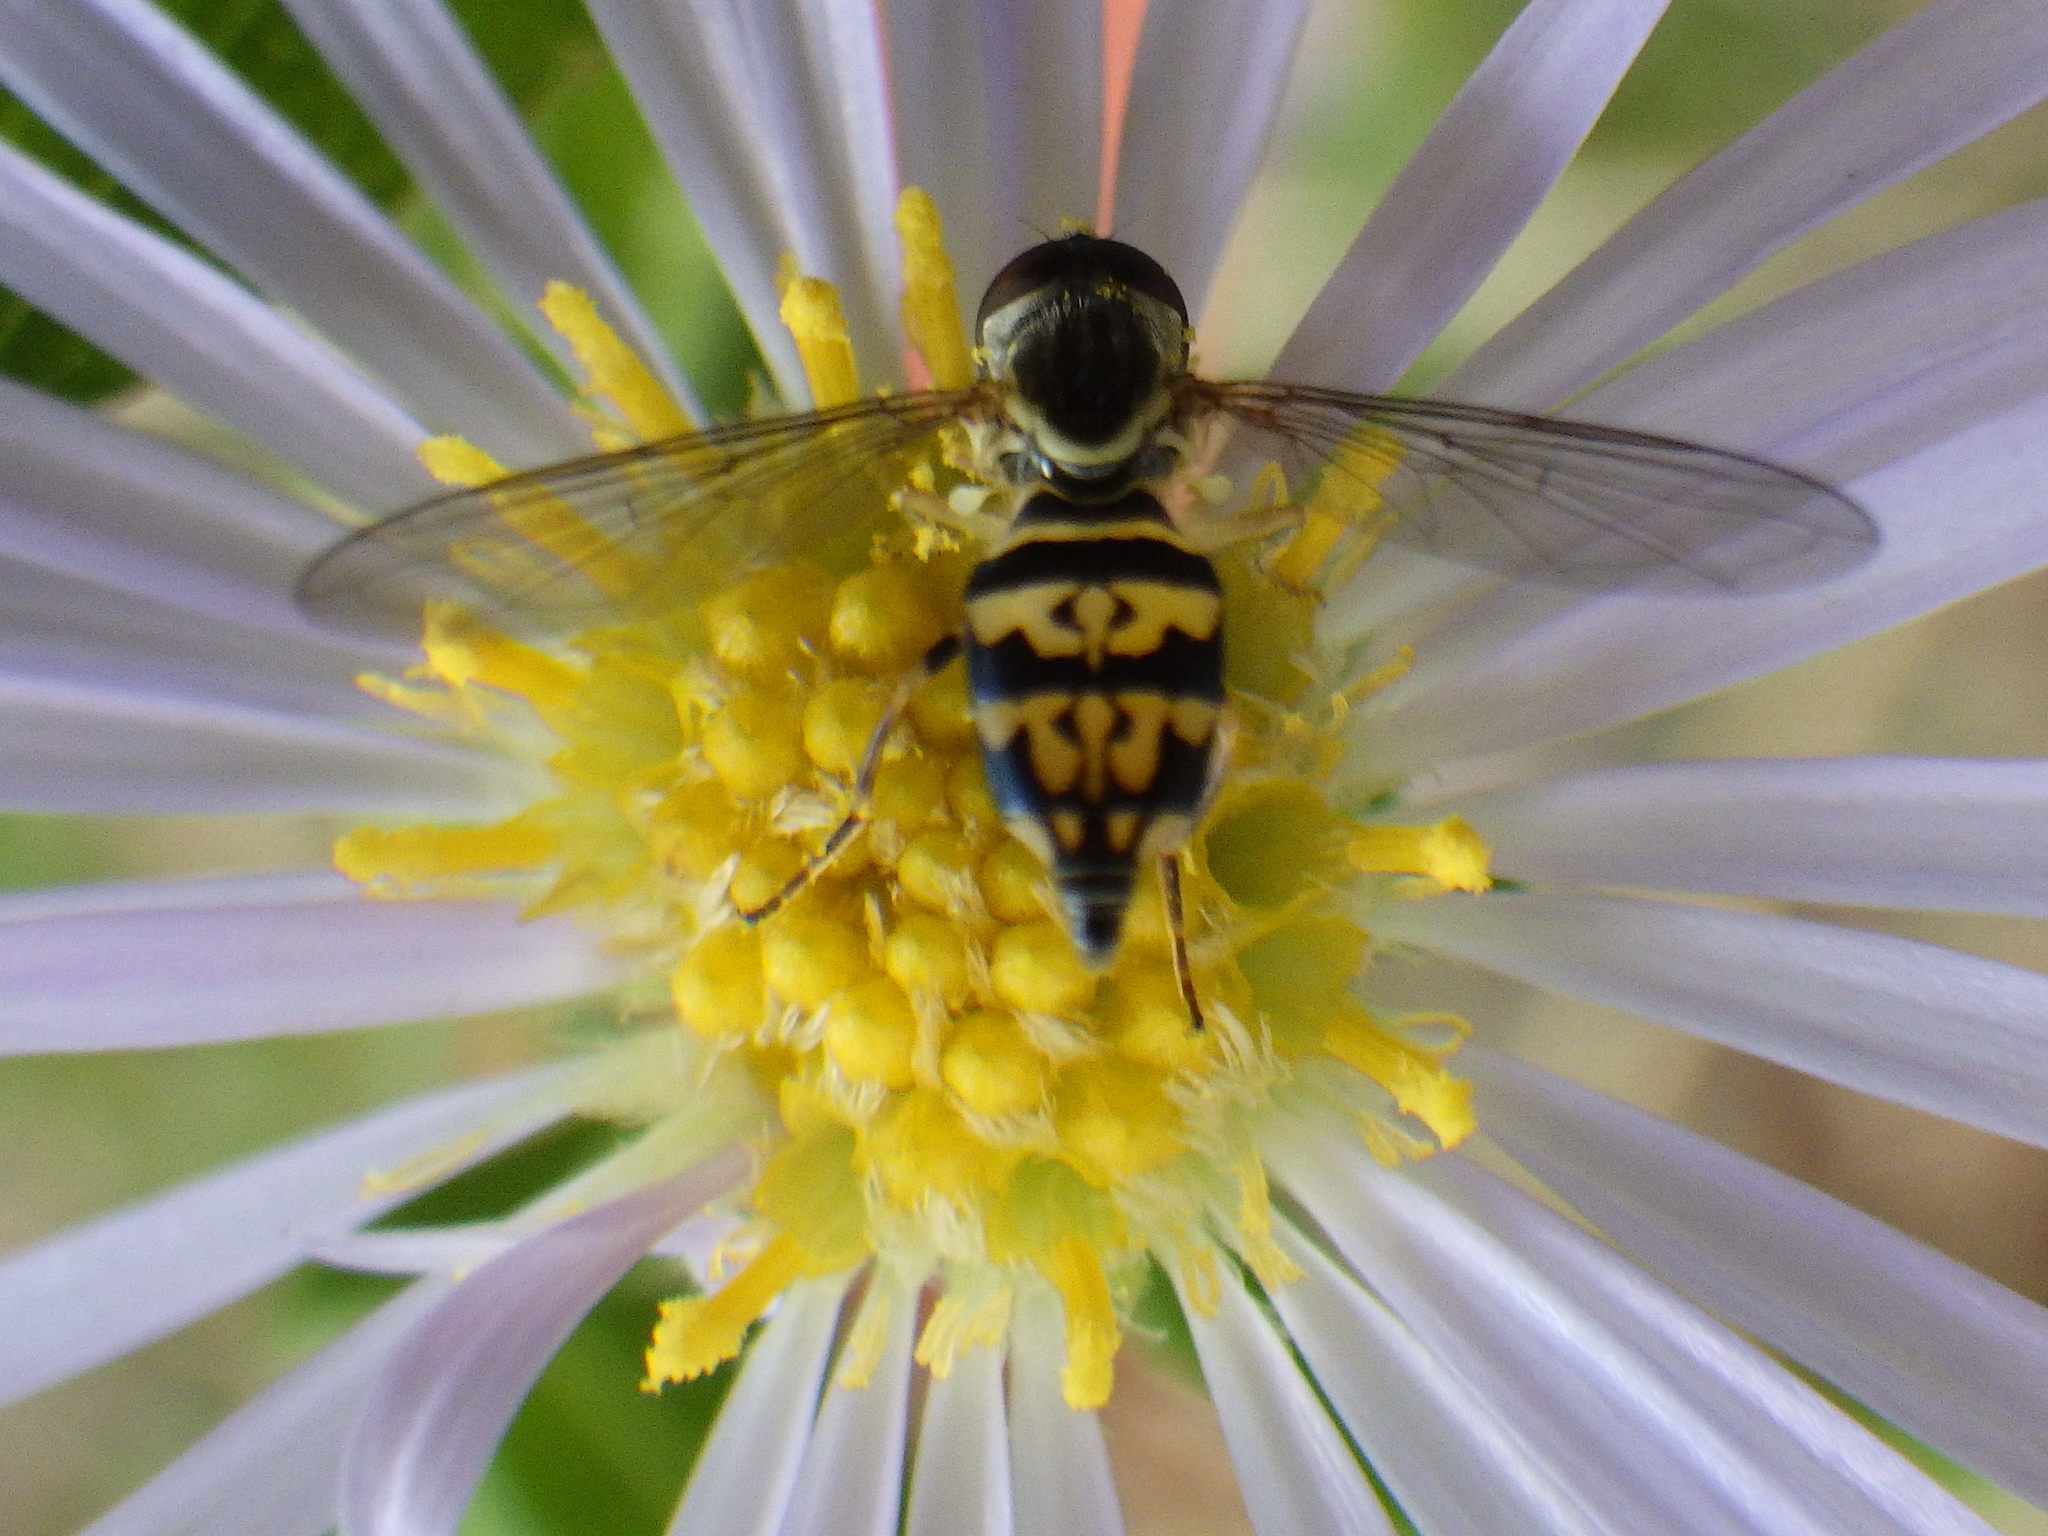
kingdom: Animalia
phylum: Arthropoda
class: Insecta
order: Diptera
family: Syrphidae
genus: Toxomerus
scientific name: Toxomerus geminatus
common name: Eastern calligrapher
